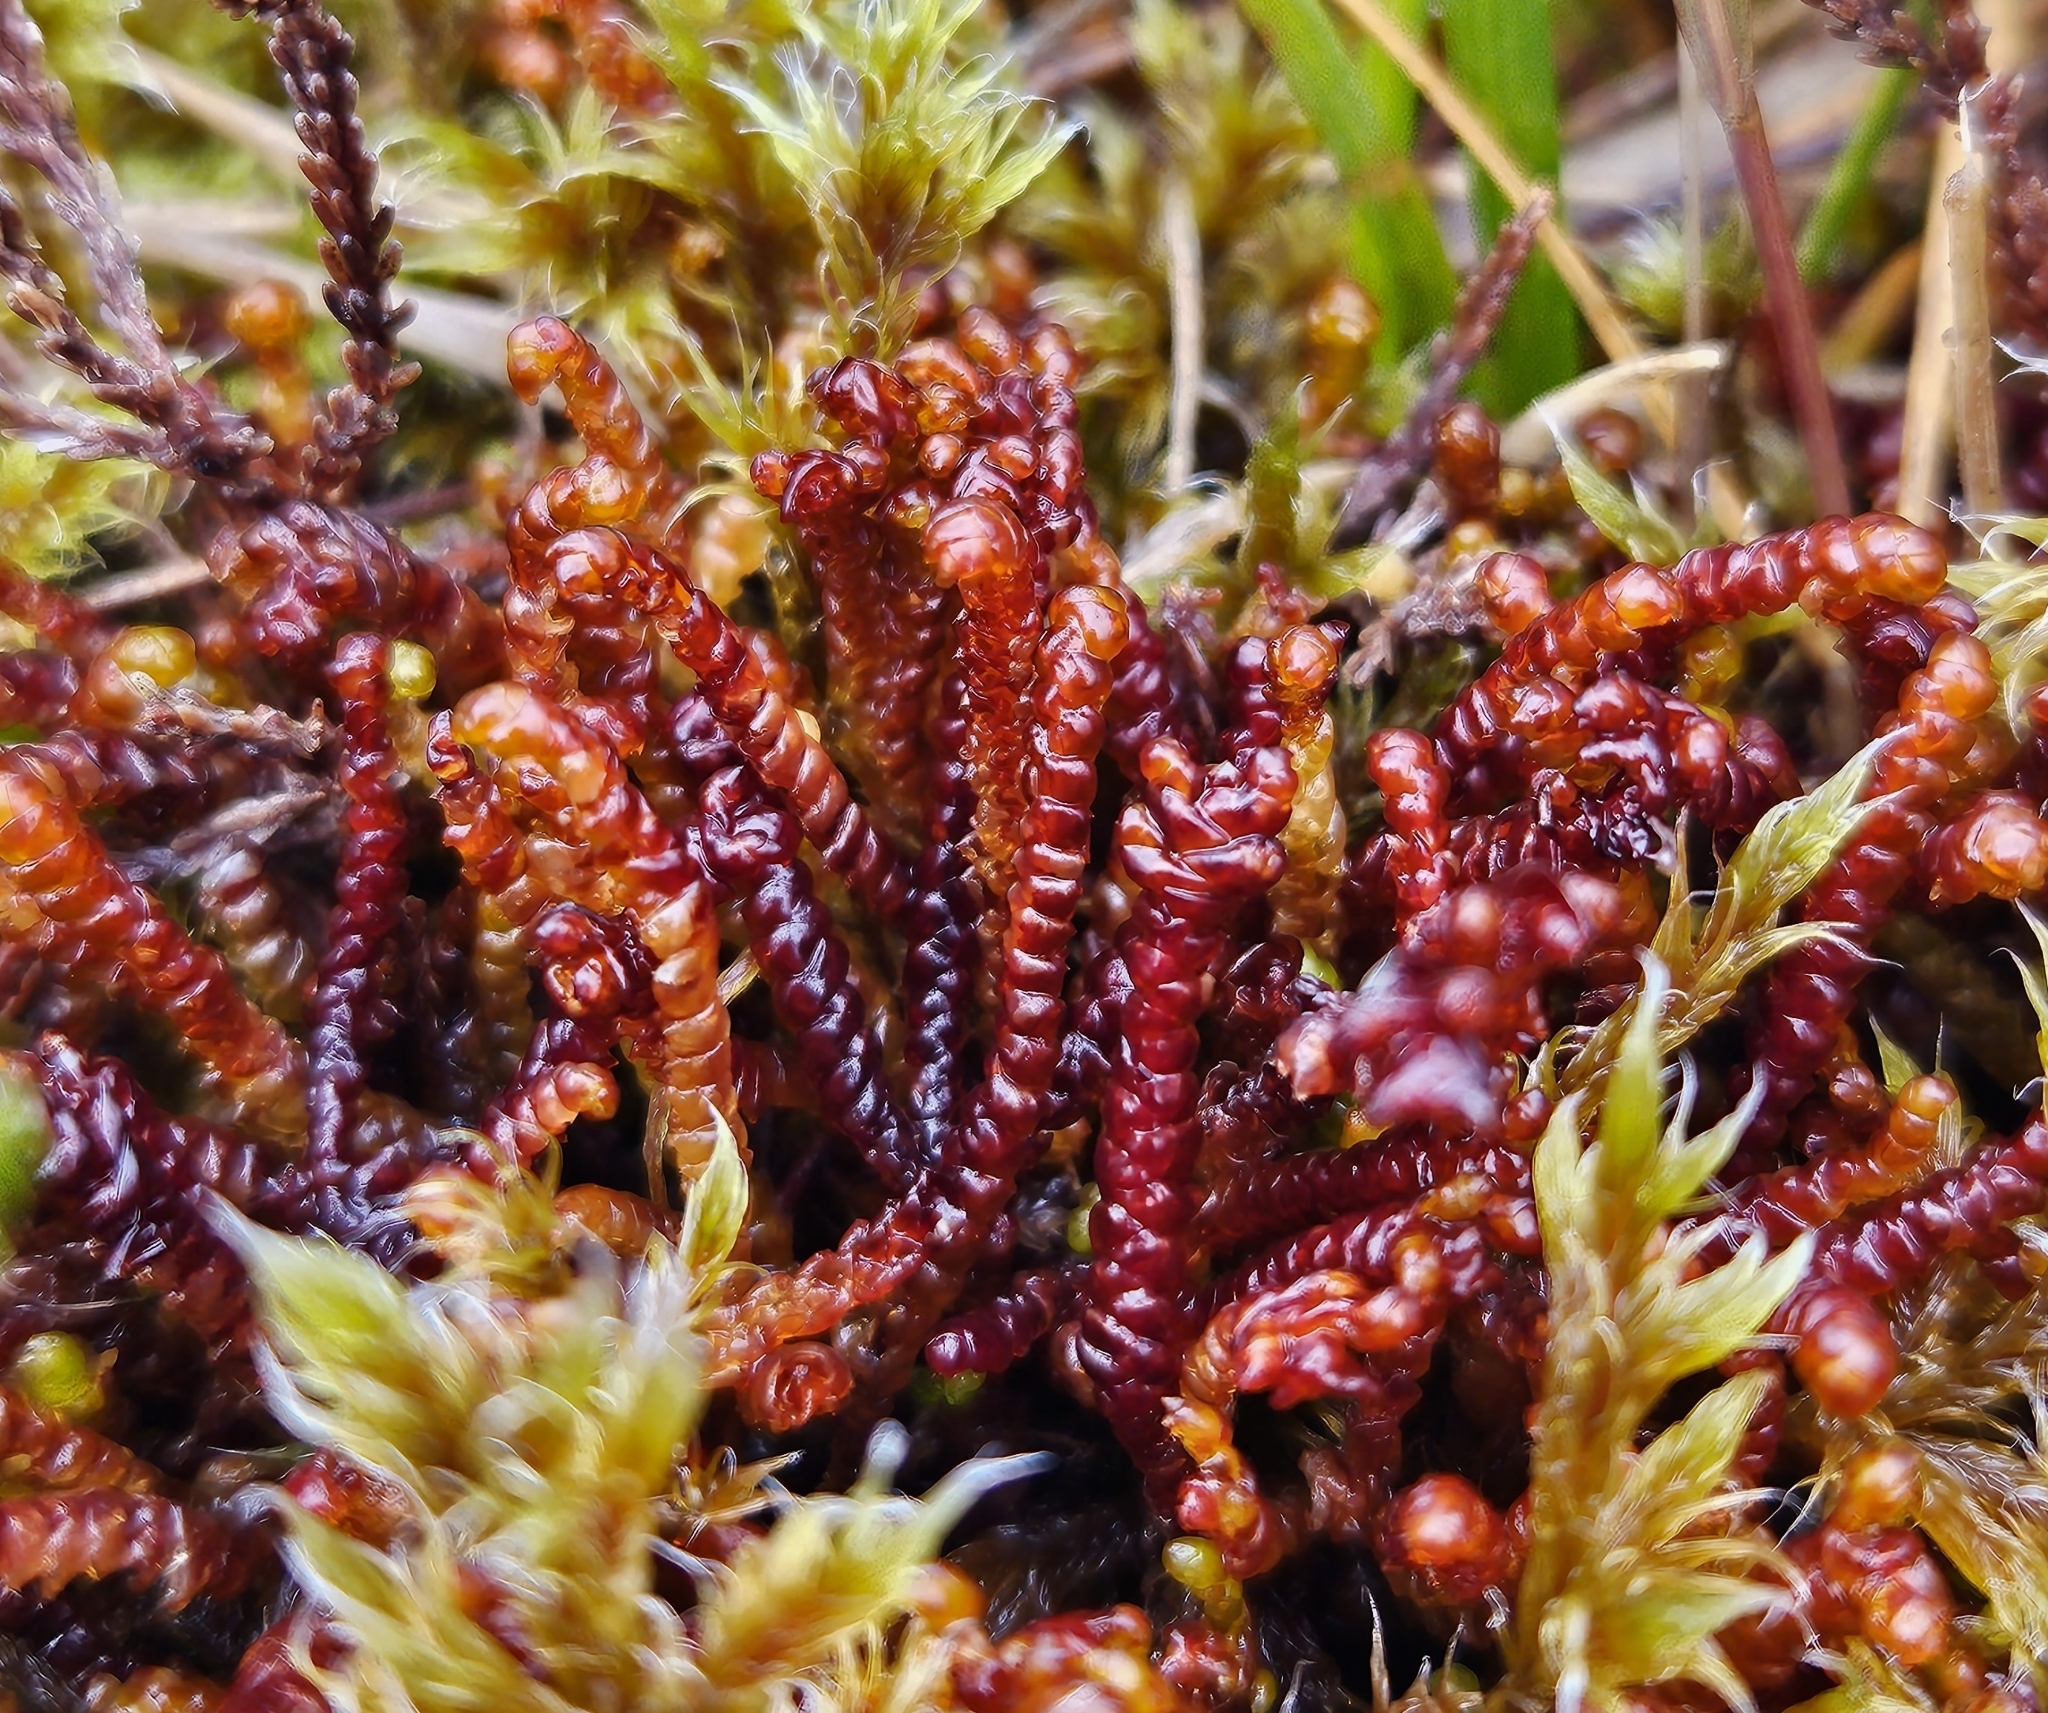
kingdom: Plantae
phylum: Marchantiophyta
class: Jungermanniopsida
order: Pleuroziales
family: Pleuroziaceae
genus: Pleurozia
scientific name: Pleurozia purpurea
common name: Purple spoonwort
